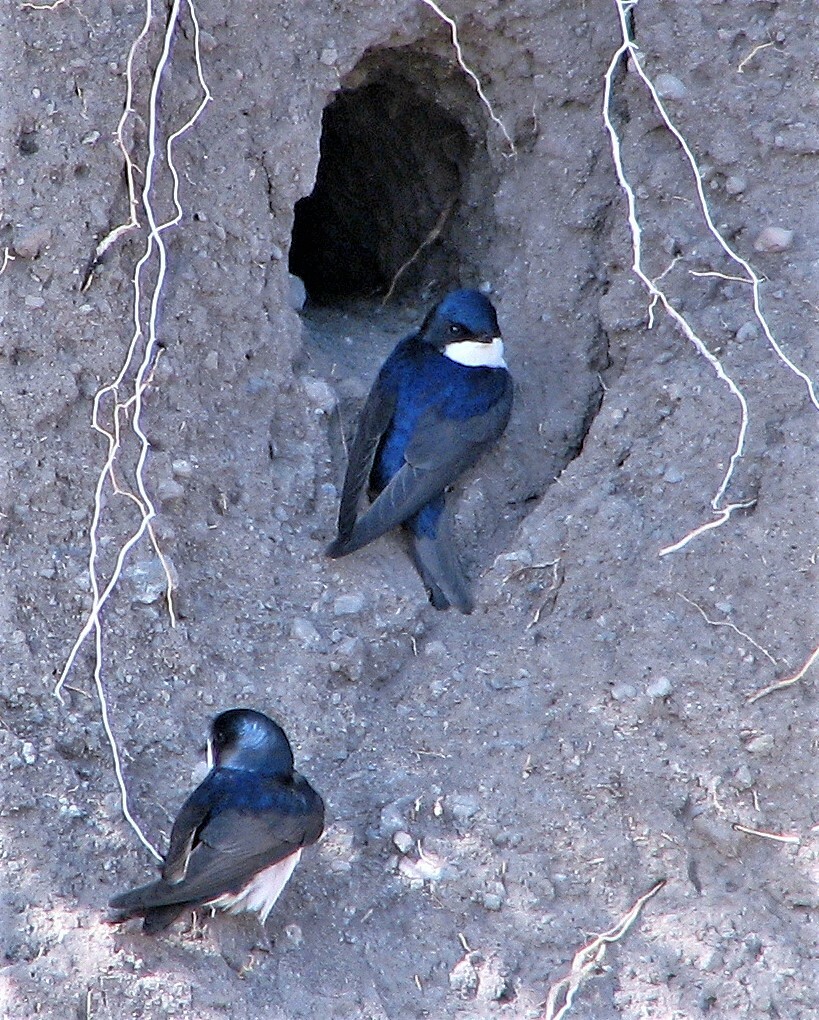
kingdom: Animalia
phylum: Chordata
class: Aves
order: Passeriformes
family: Hirundinidae
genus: Notiochelidon
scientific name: Notiochelidon cyanoleuca
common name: Blue-and-white swallow
